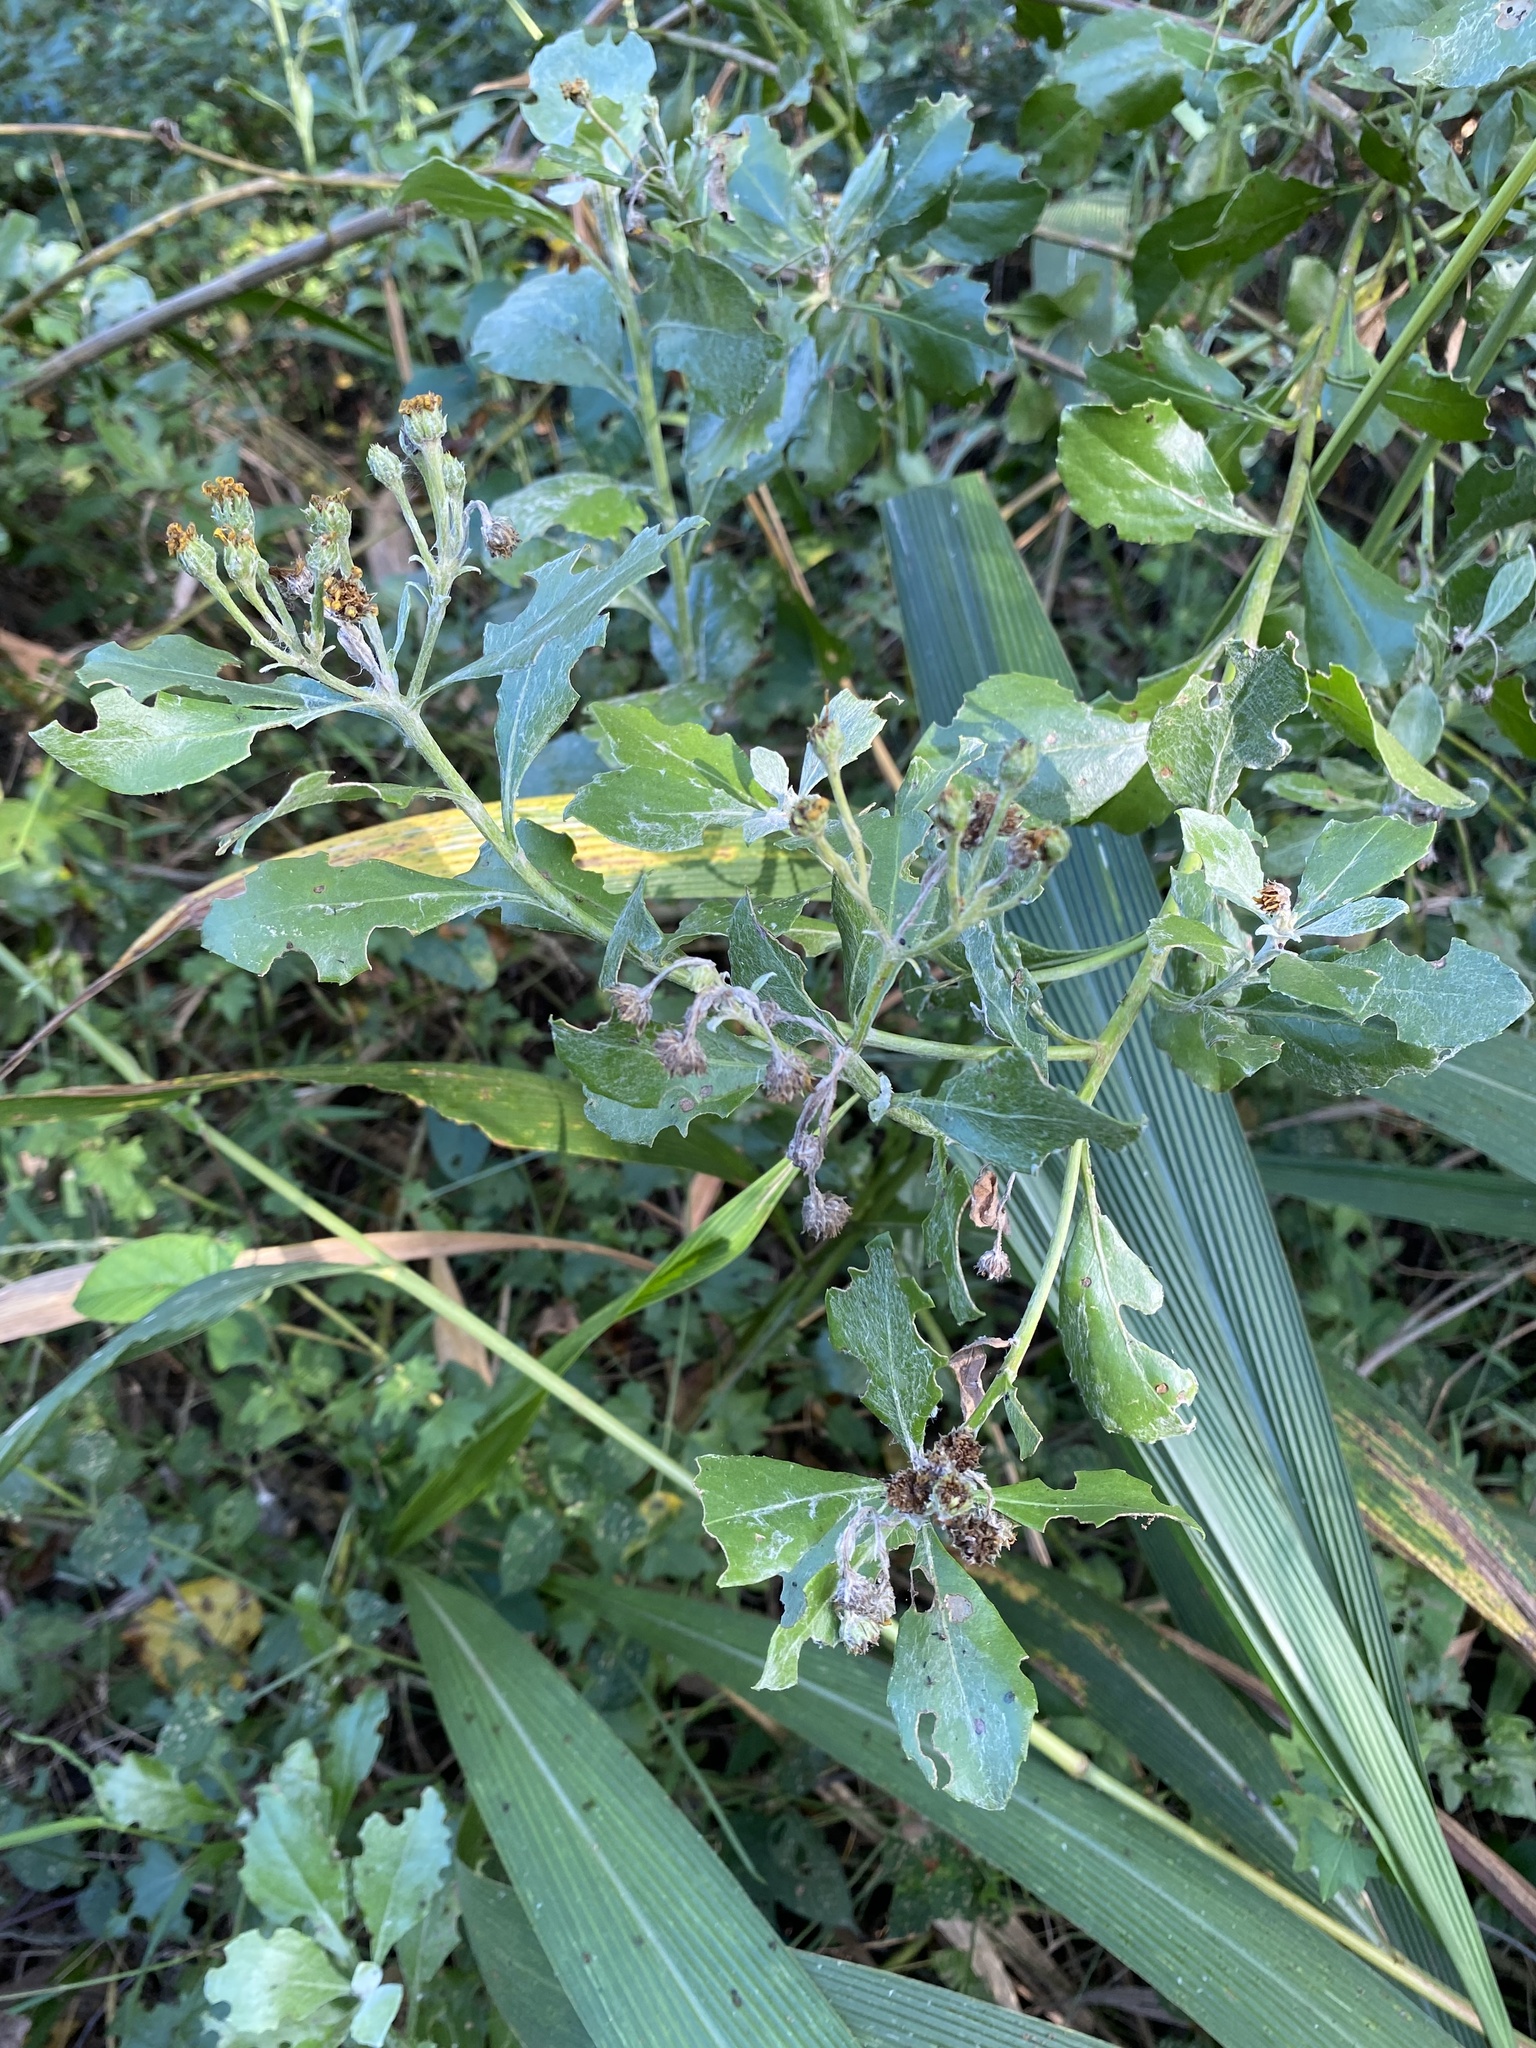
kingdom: Plantae
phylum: Tracheophyta
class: Magnoliopsida
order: Asterales
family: Asteraceae
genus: Osteospermum
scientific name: Osteospermum moniliferum
